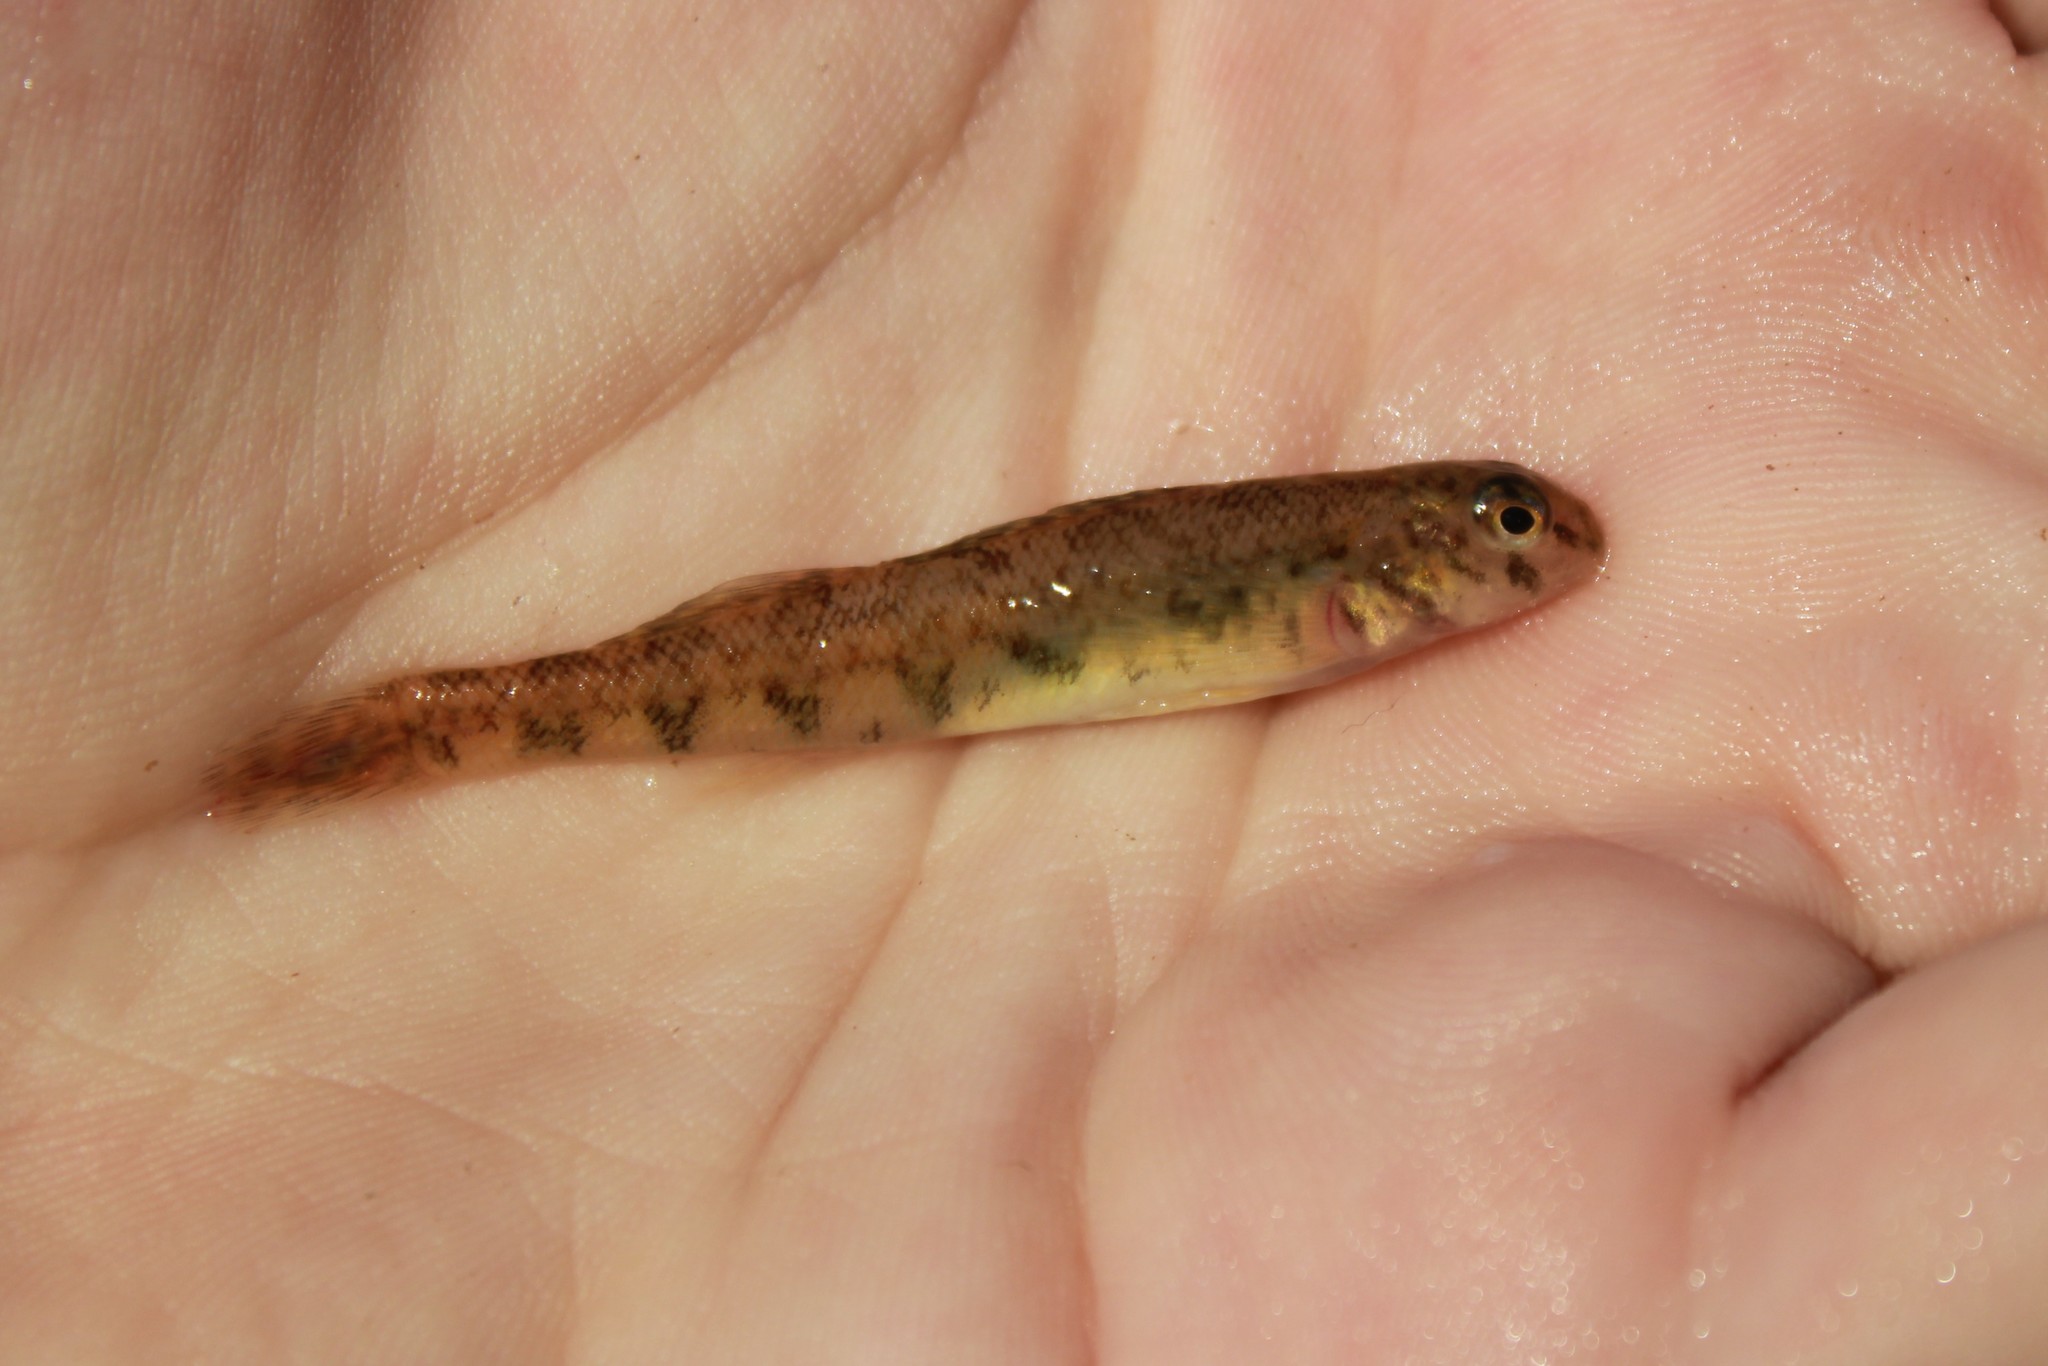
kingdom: Animalia
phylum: Chordata
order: Perciformes
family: Percidae
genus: Etheostoma
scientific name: Etheostoma blennioides
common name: Greenside darter
